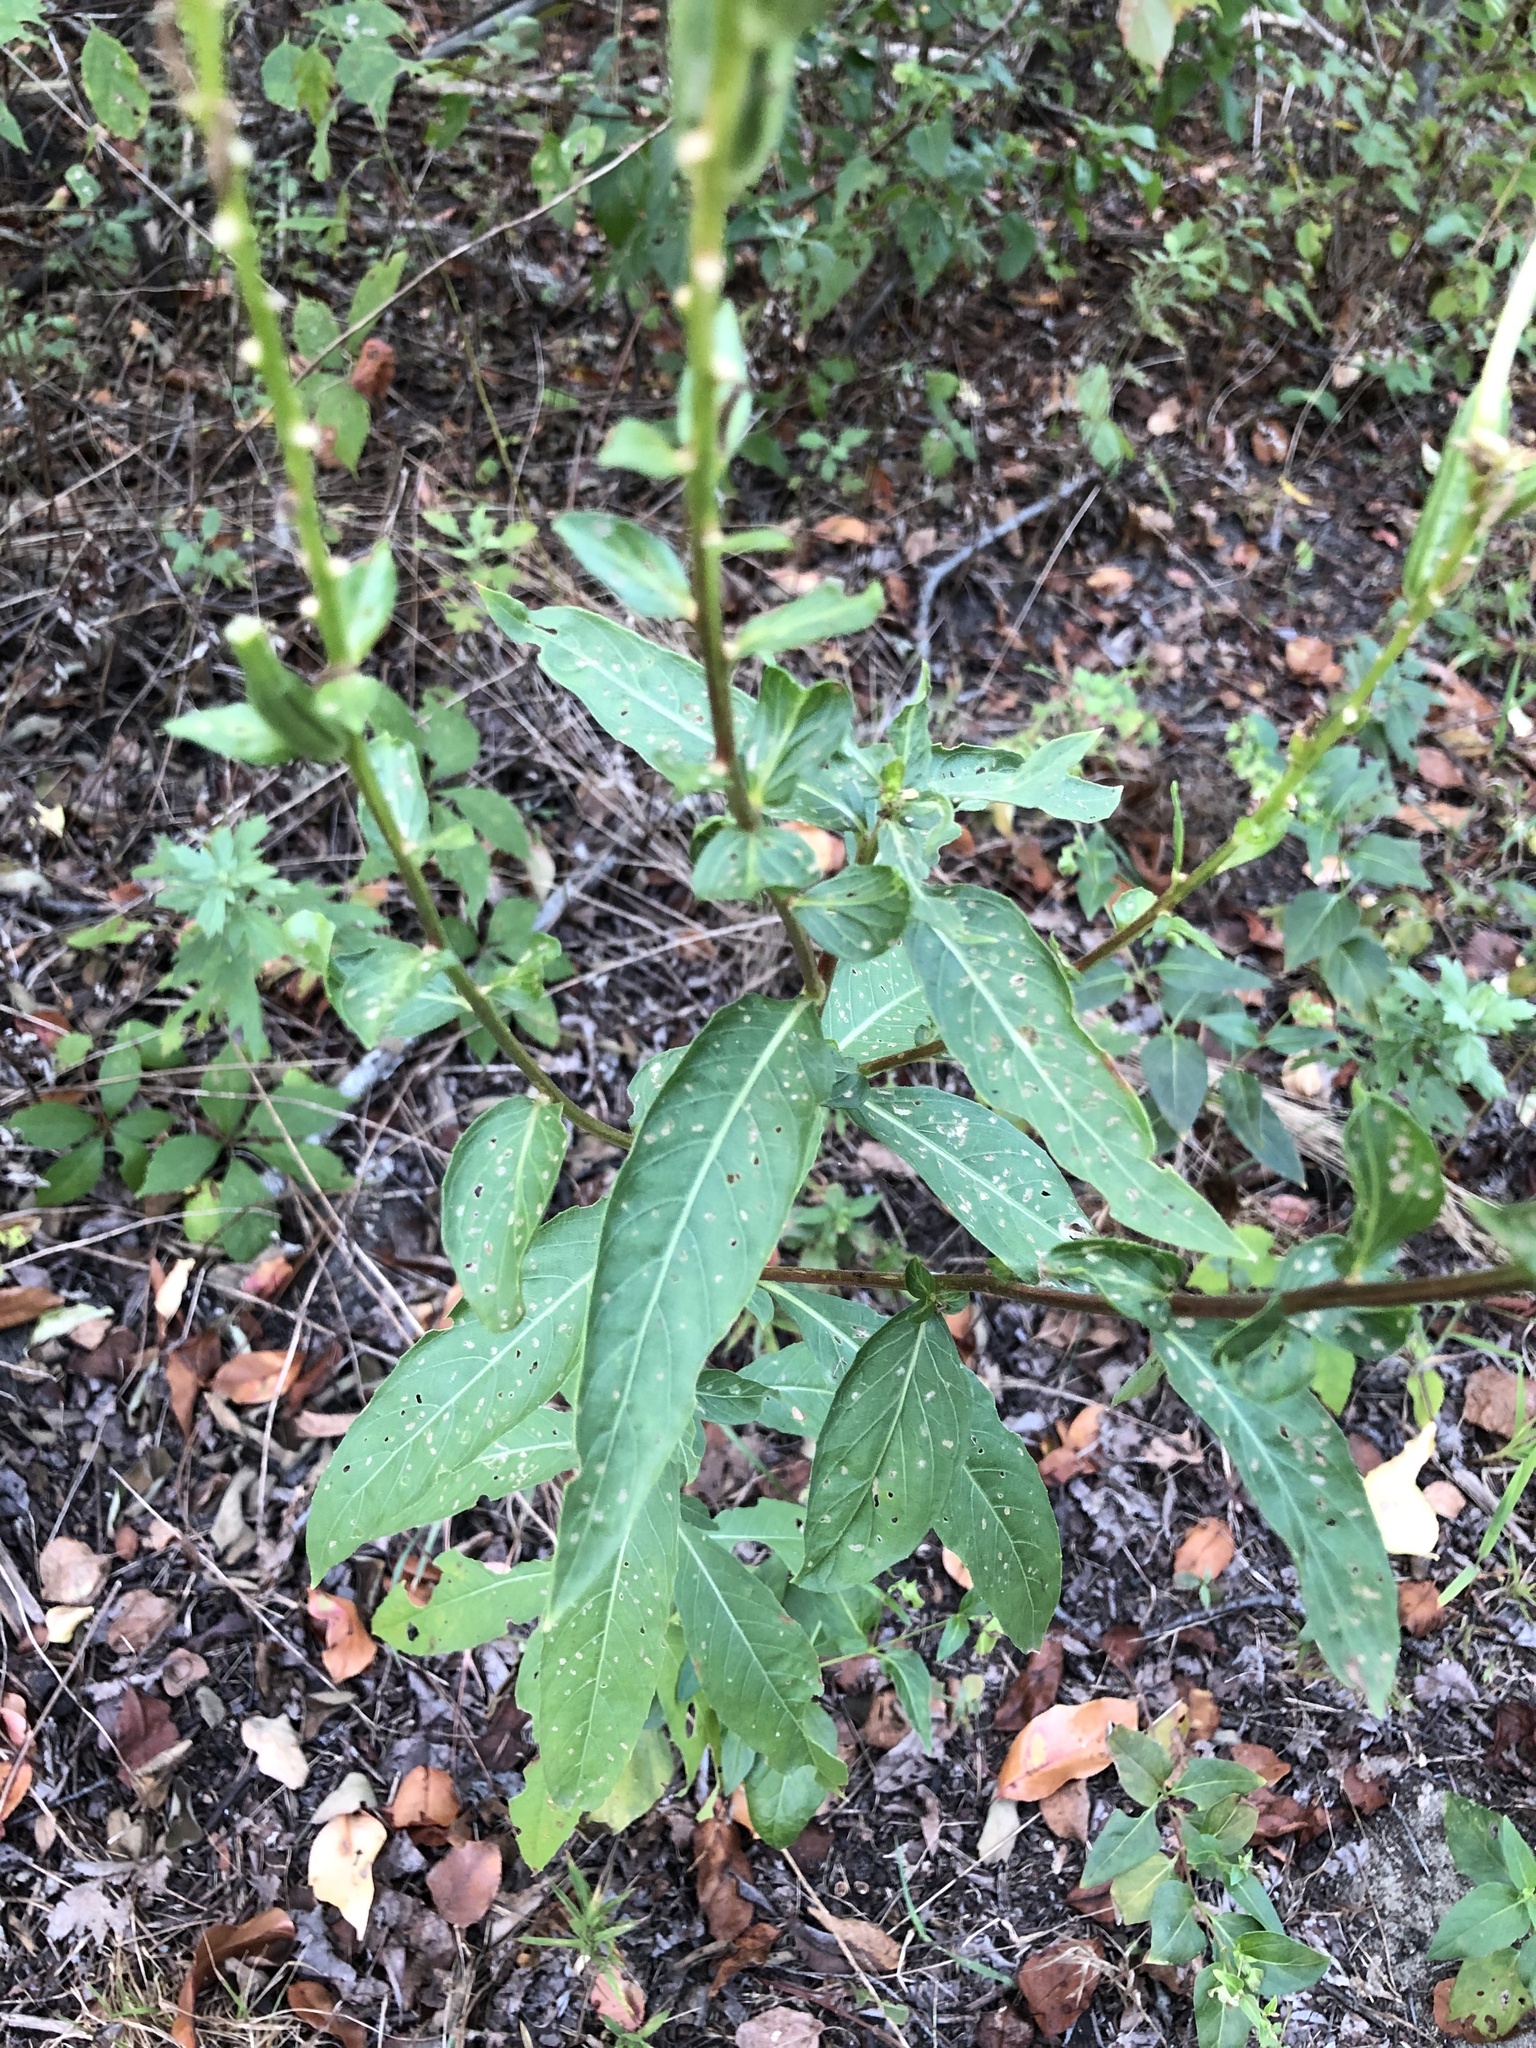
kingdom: Plantae
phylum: Tracheophyta
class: Magnoliopsida
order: Myrtales
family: Onagraceae
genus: Oenothera
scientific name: Oenothera biennis
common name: Common evening-primrose
